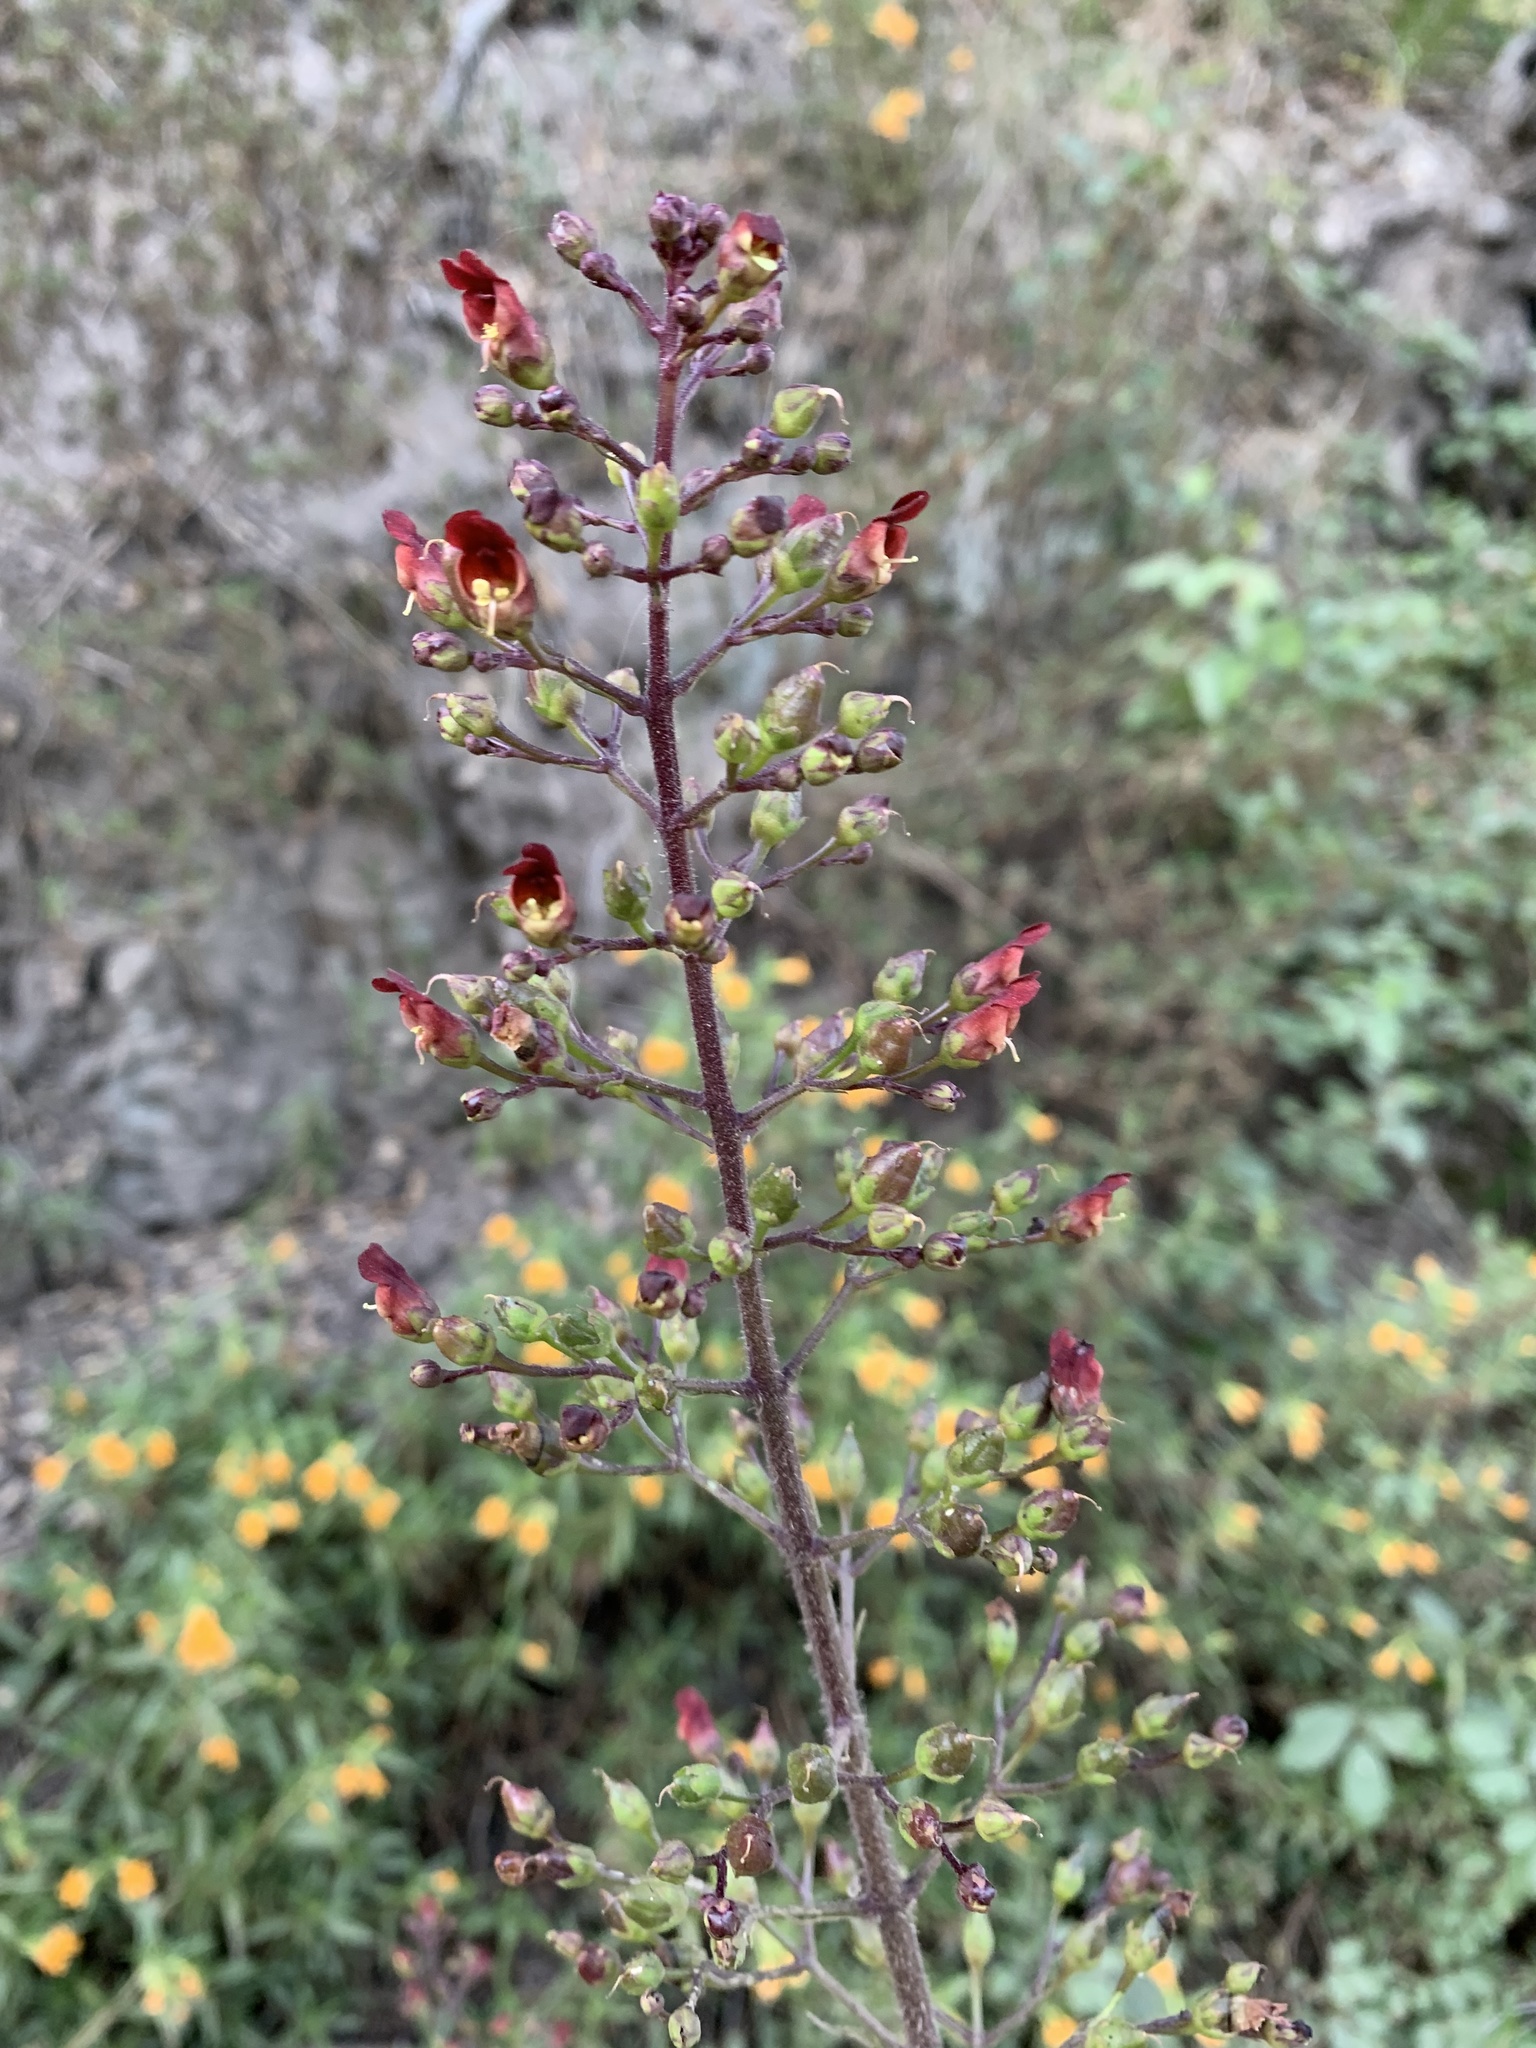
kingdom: Plantae
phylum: Tracheophyta
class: Magnoliopsida
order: Lamiales
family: Scrophulariaceae
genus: Scrophularia
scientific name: Scrophularia californica
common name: California figwort
